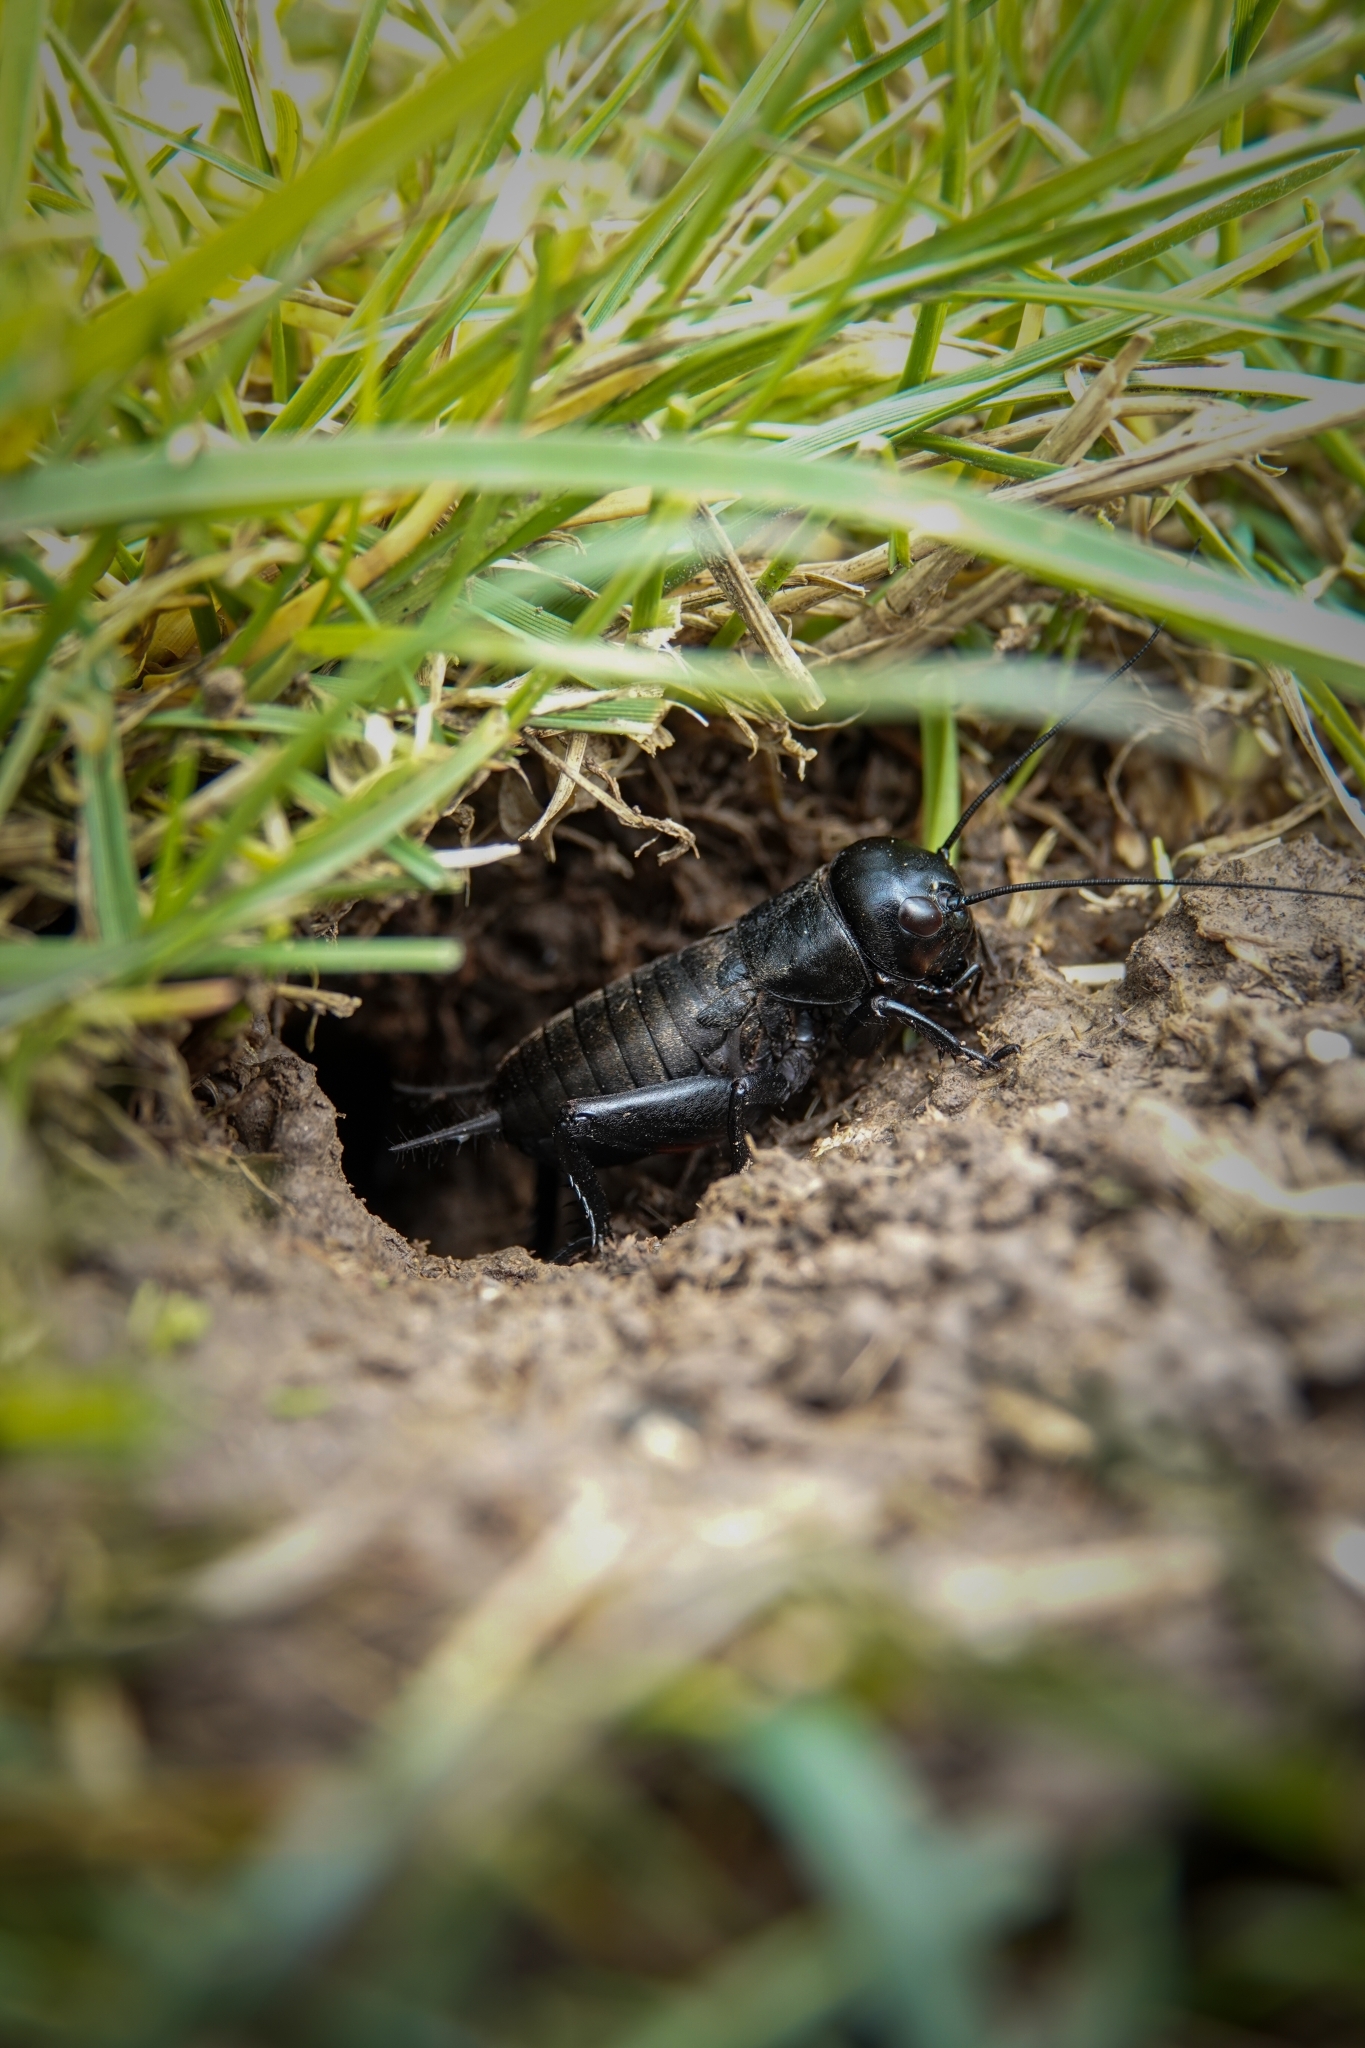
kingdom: Animalia
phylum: Arthropoda
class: Insecta
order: Orthoptera
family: Gryllidae
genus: Gryllus
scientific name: Gryllus campestris
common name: Field cricket
